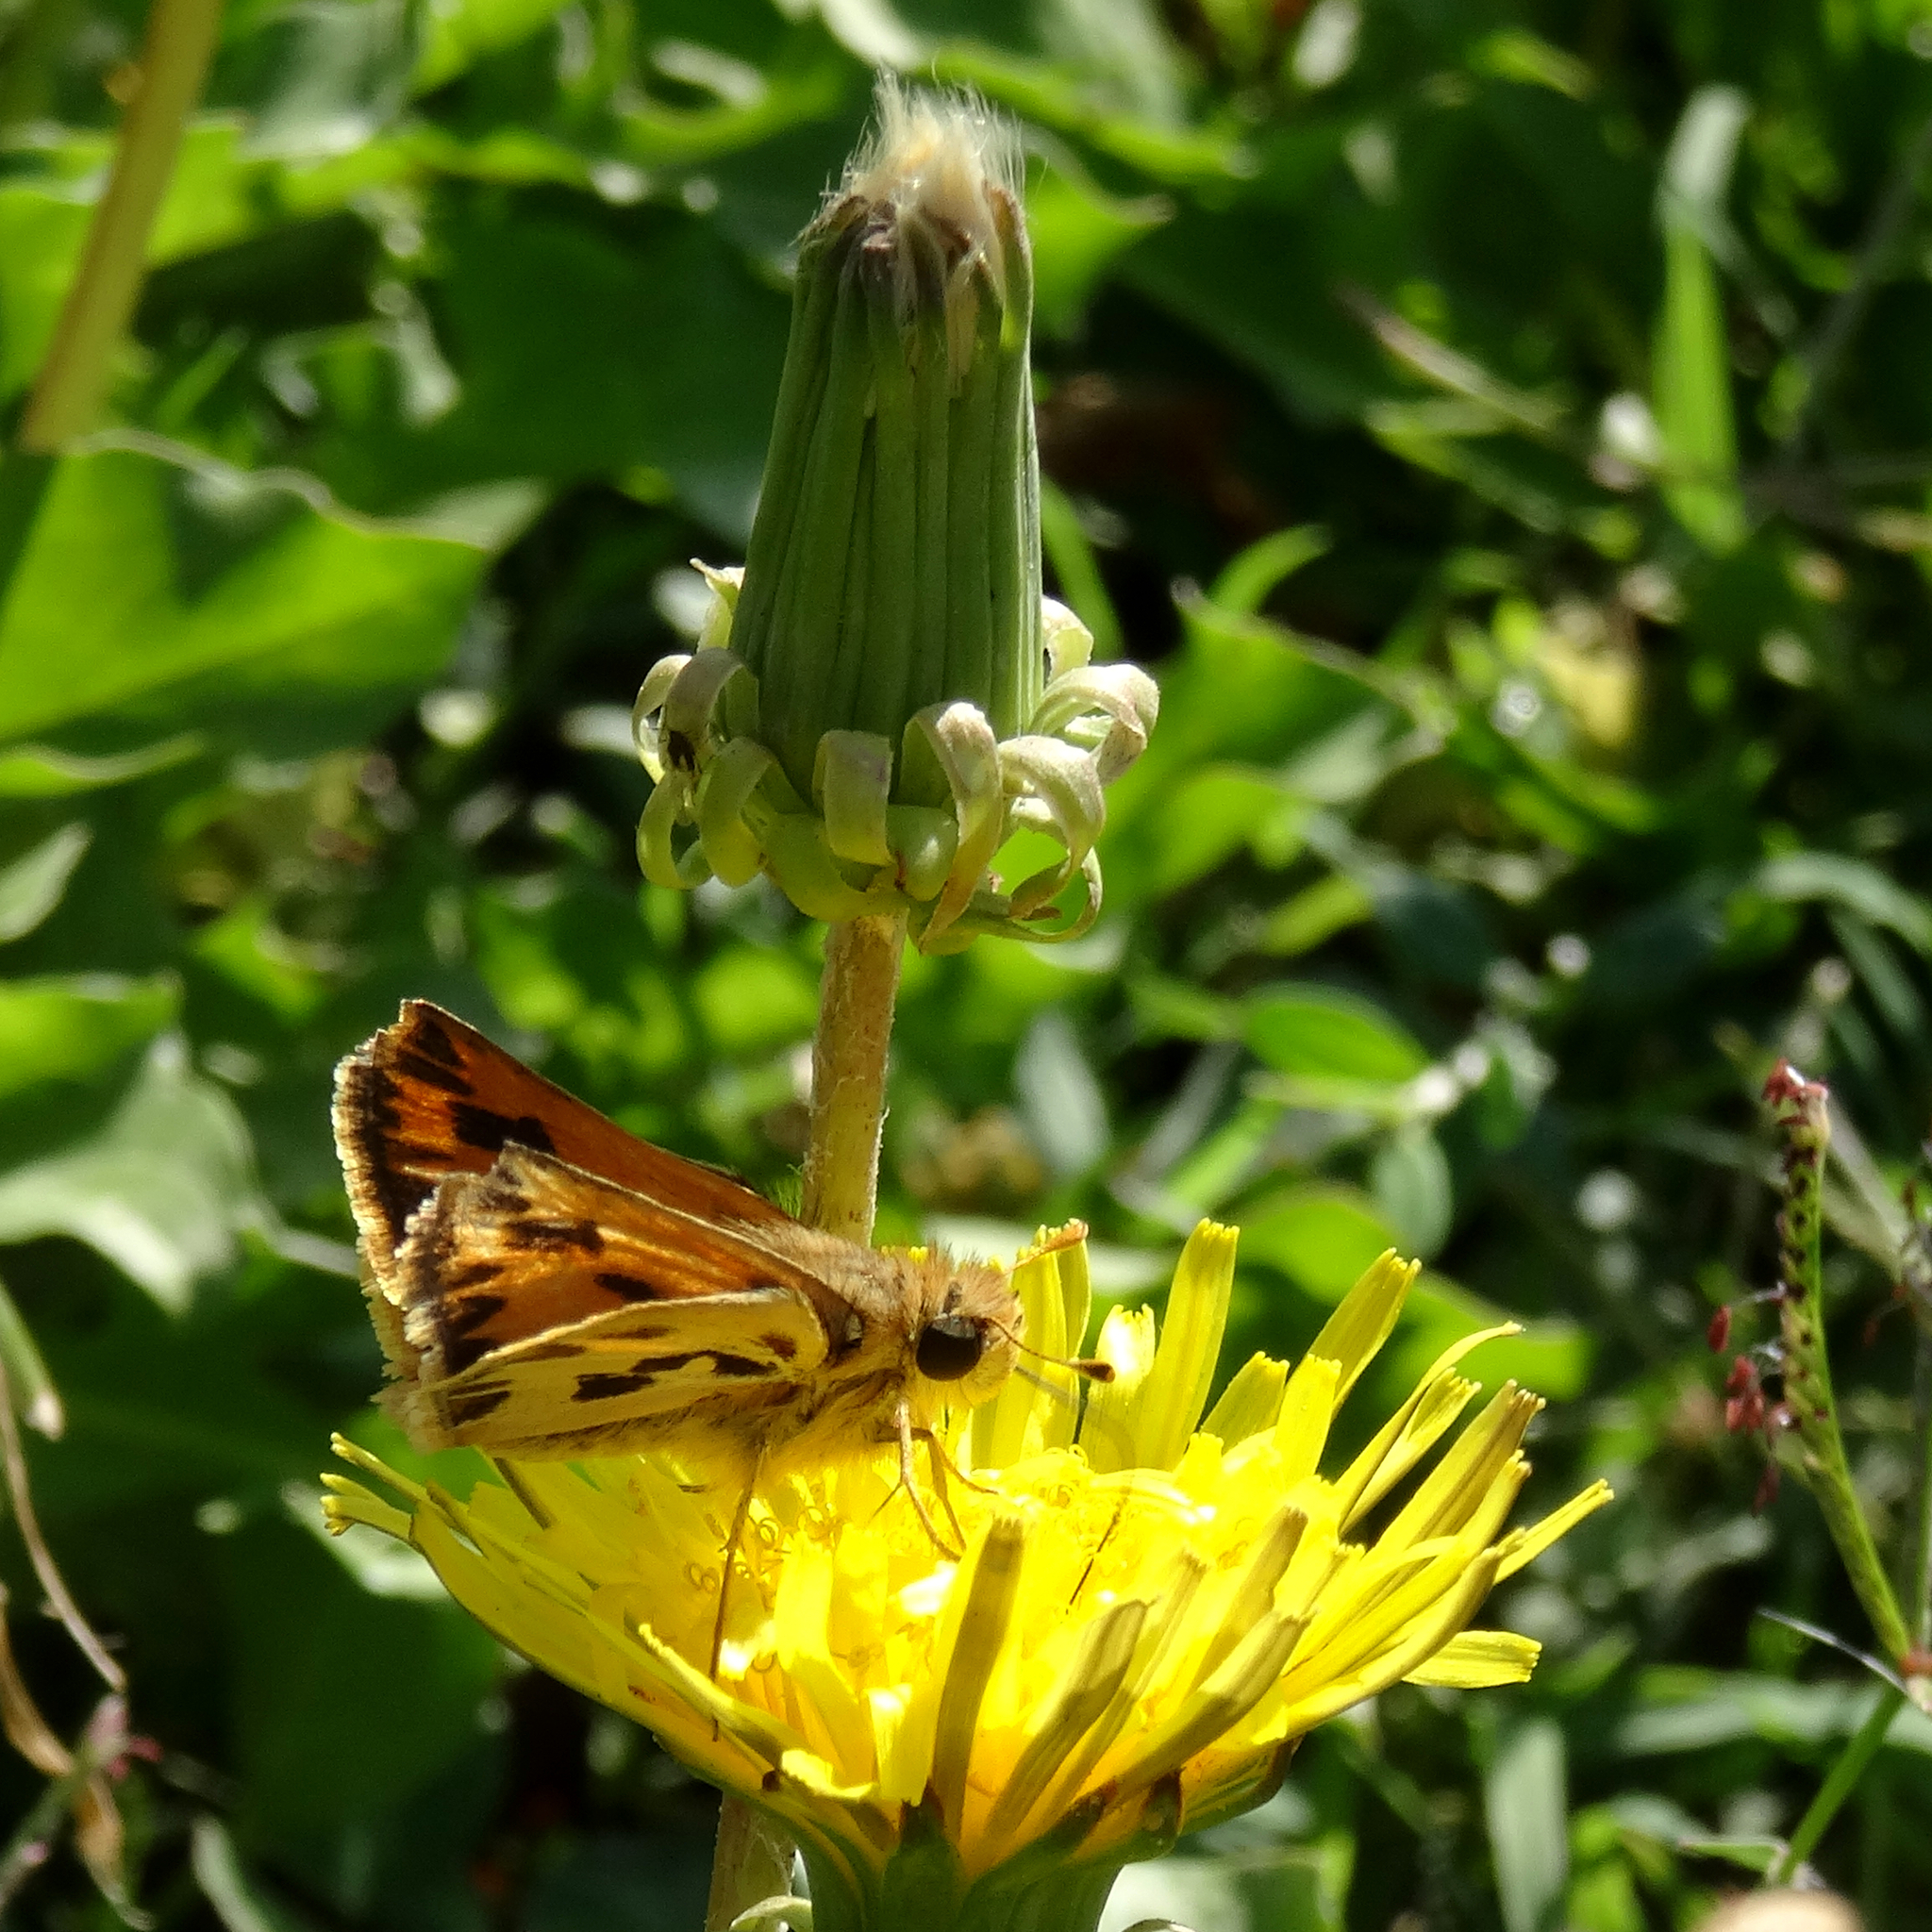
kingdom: Animalia
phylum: Arthropoda
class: Insecta
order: Lepidoptera
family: Hesperiidae
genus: Hylephila
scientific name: Hylephila fasciolata
